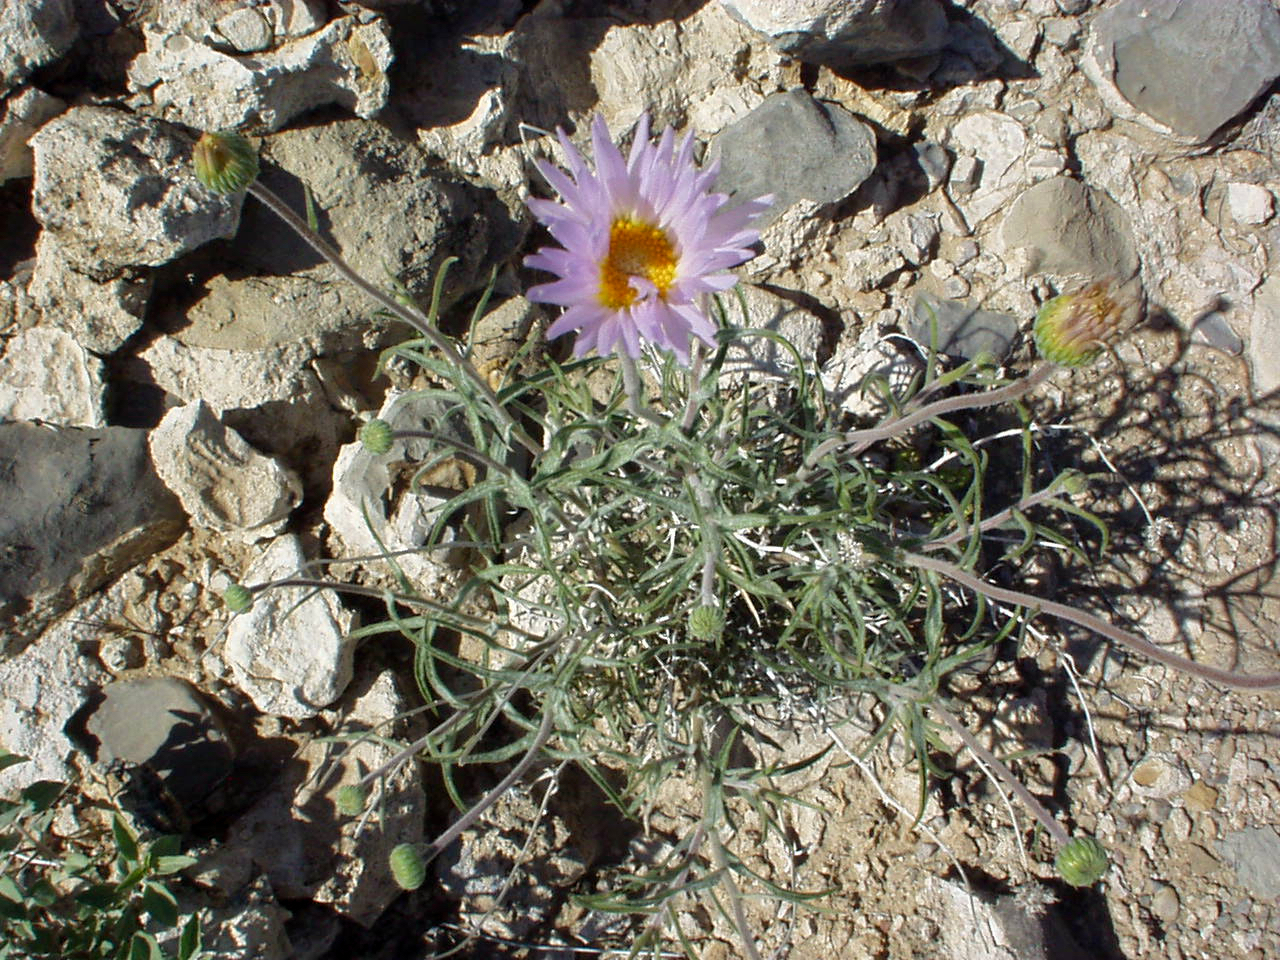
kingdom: Plantae
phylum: Tracheophyta
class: Magnoliopsida
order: Asterales
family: Asteraceae
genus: Xylorhiza
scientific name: Xylorhiza tortifolia
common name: Hurt-leaf woody-aster
